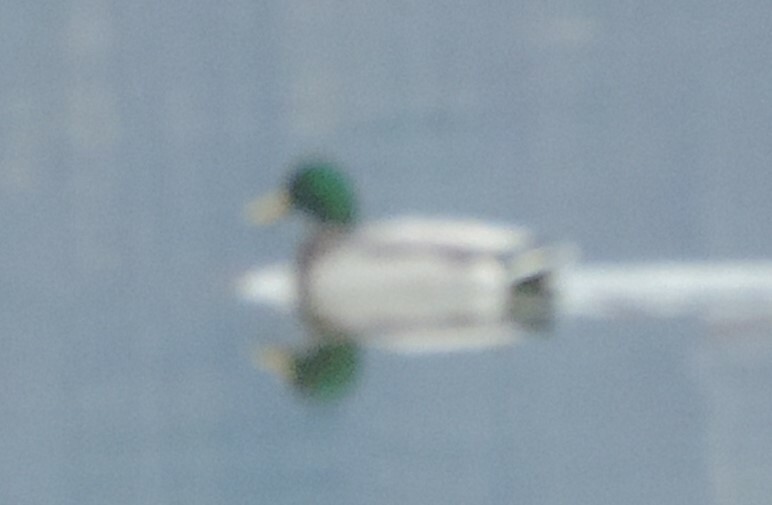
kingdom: Animalia
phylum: Chordata
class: Aves
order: Anseriformes
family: Anatidae
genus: Anas
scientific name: Anas platyrhynchos
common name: Mallard
